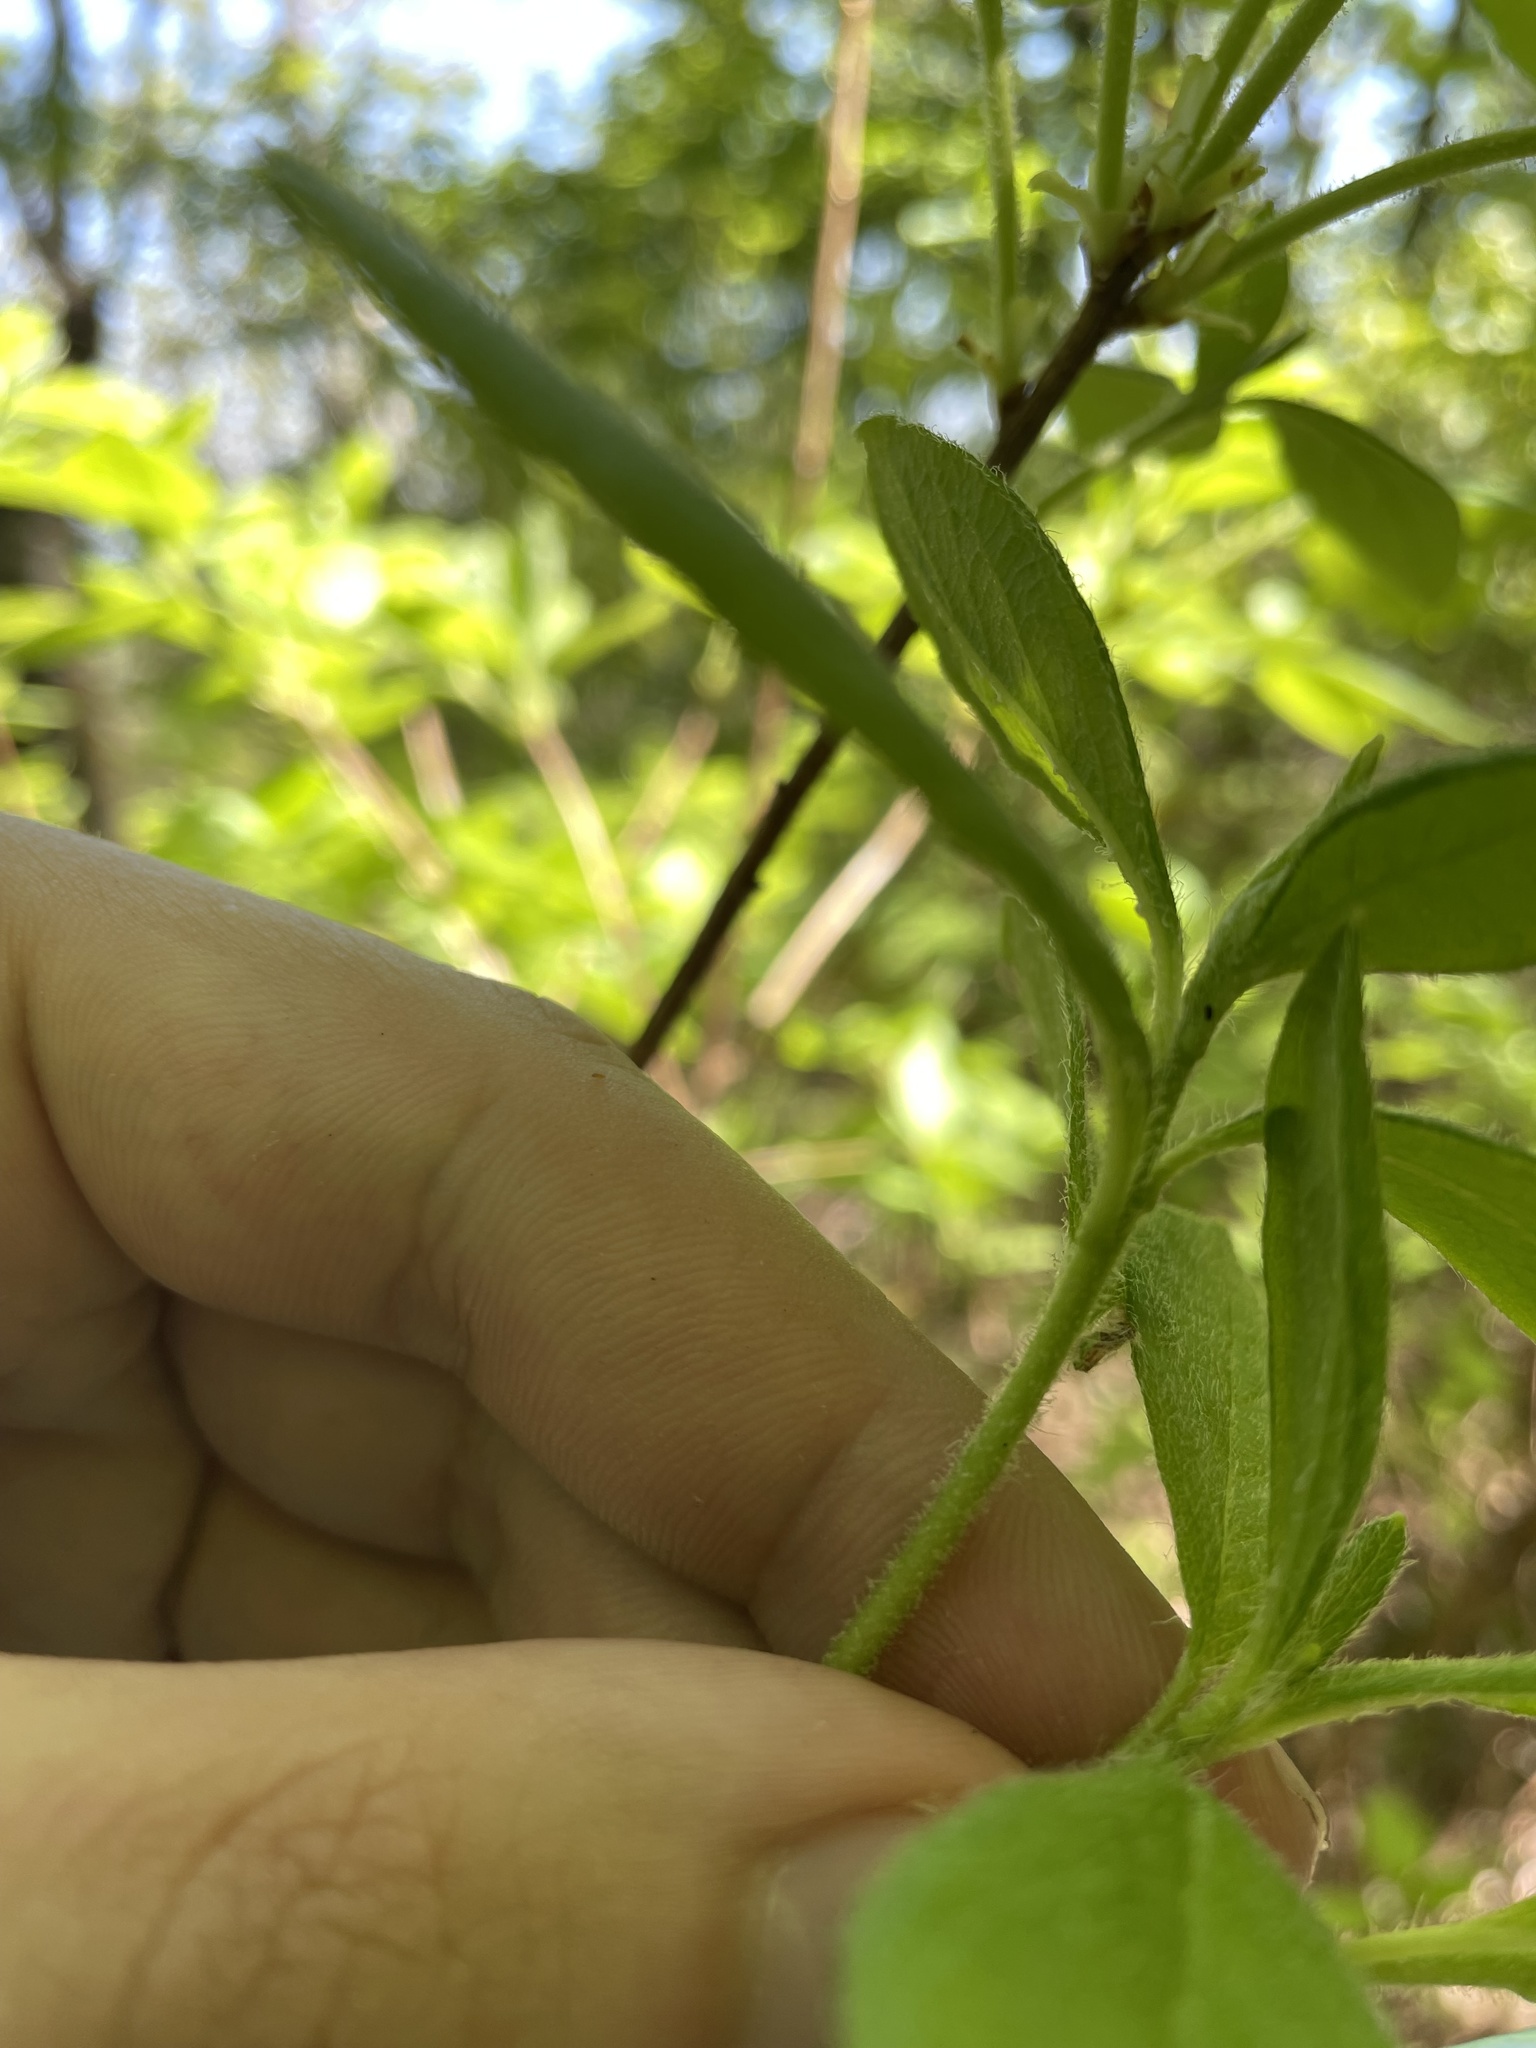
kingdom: Plantae
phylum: Tracheophyta
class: Magnoliopsida
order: Ericales
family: Ericaceae
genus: Rhododendron
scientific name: Rhododendron pilosum
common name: Hairy minniebush
